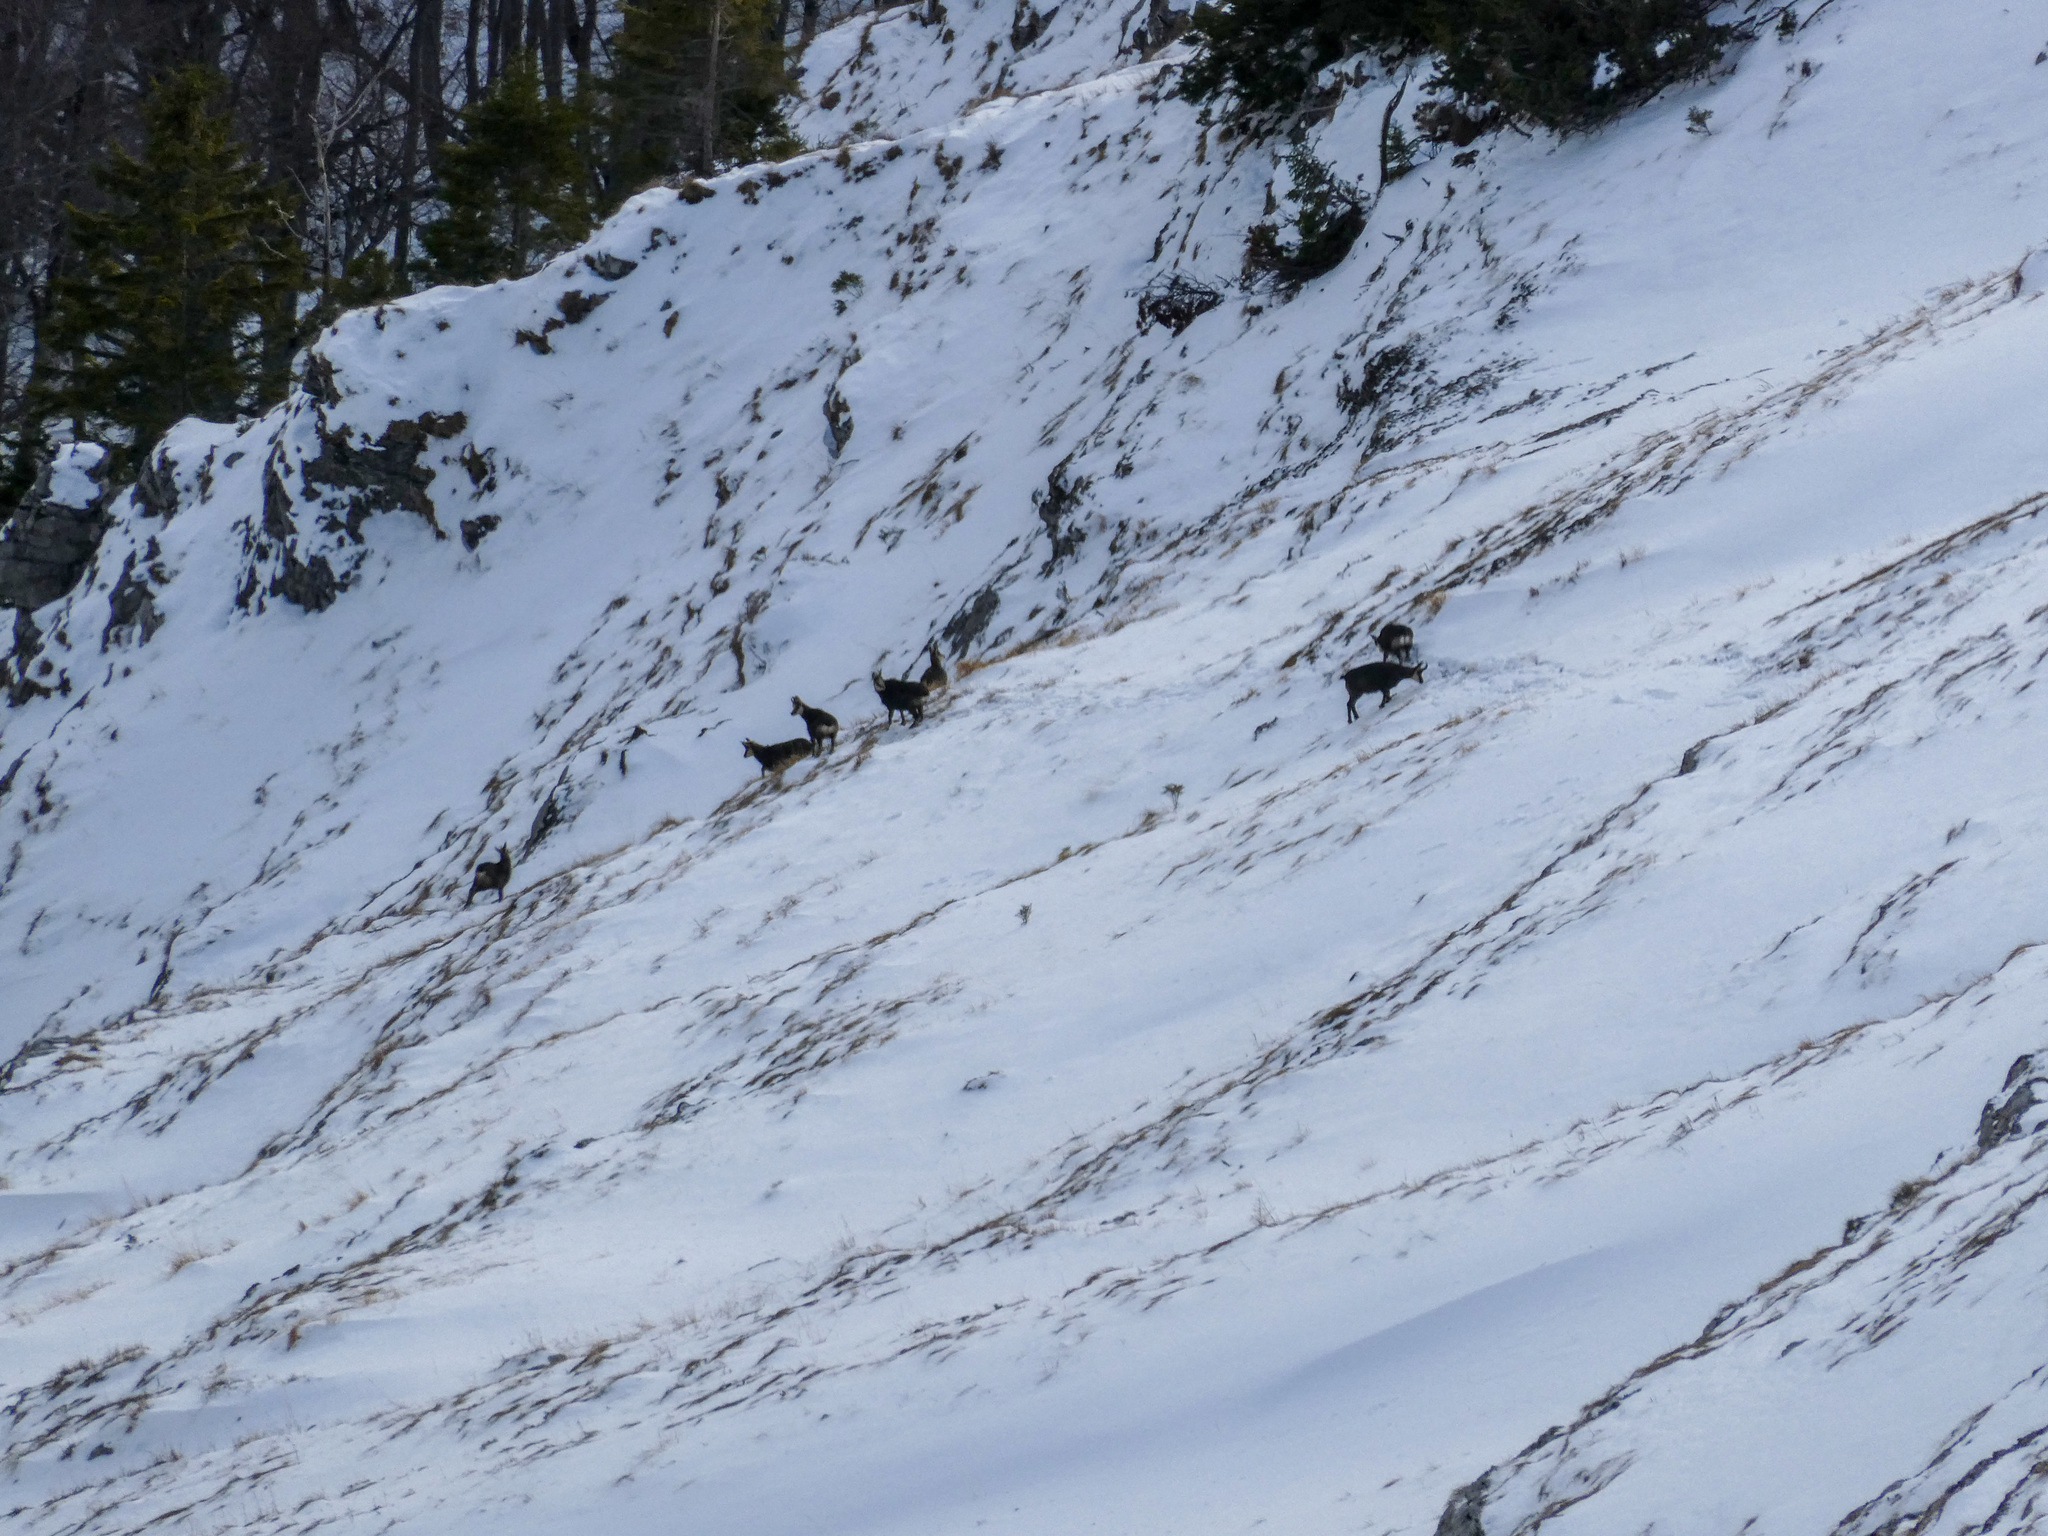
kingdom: Animalia
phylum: Chordata
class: Mammalia
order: Artiodactyla
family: Bovidae
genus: Rupicapra
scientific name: Rupicapra rupicapra
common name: Chamois
